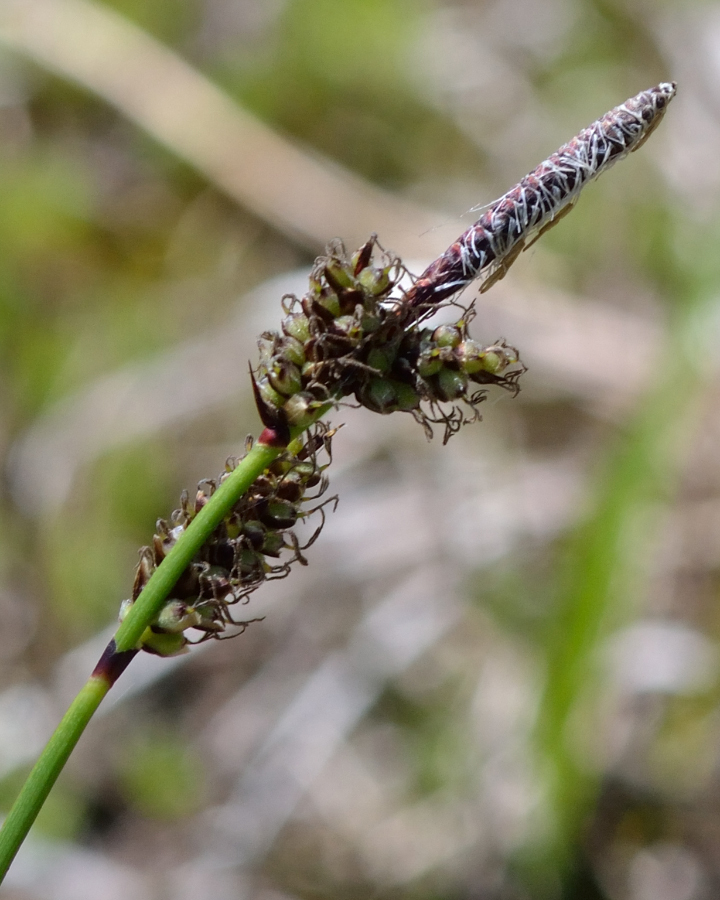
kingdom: Plantae
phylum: Tracheophyta
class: Liliopsida
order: Poales
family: Cyperaceae
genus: Carex
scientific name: Carex ericetorum
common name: Rare spring-sedge
